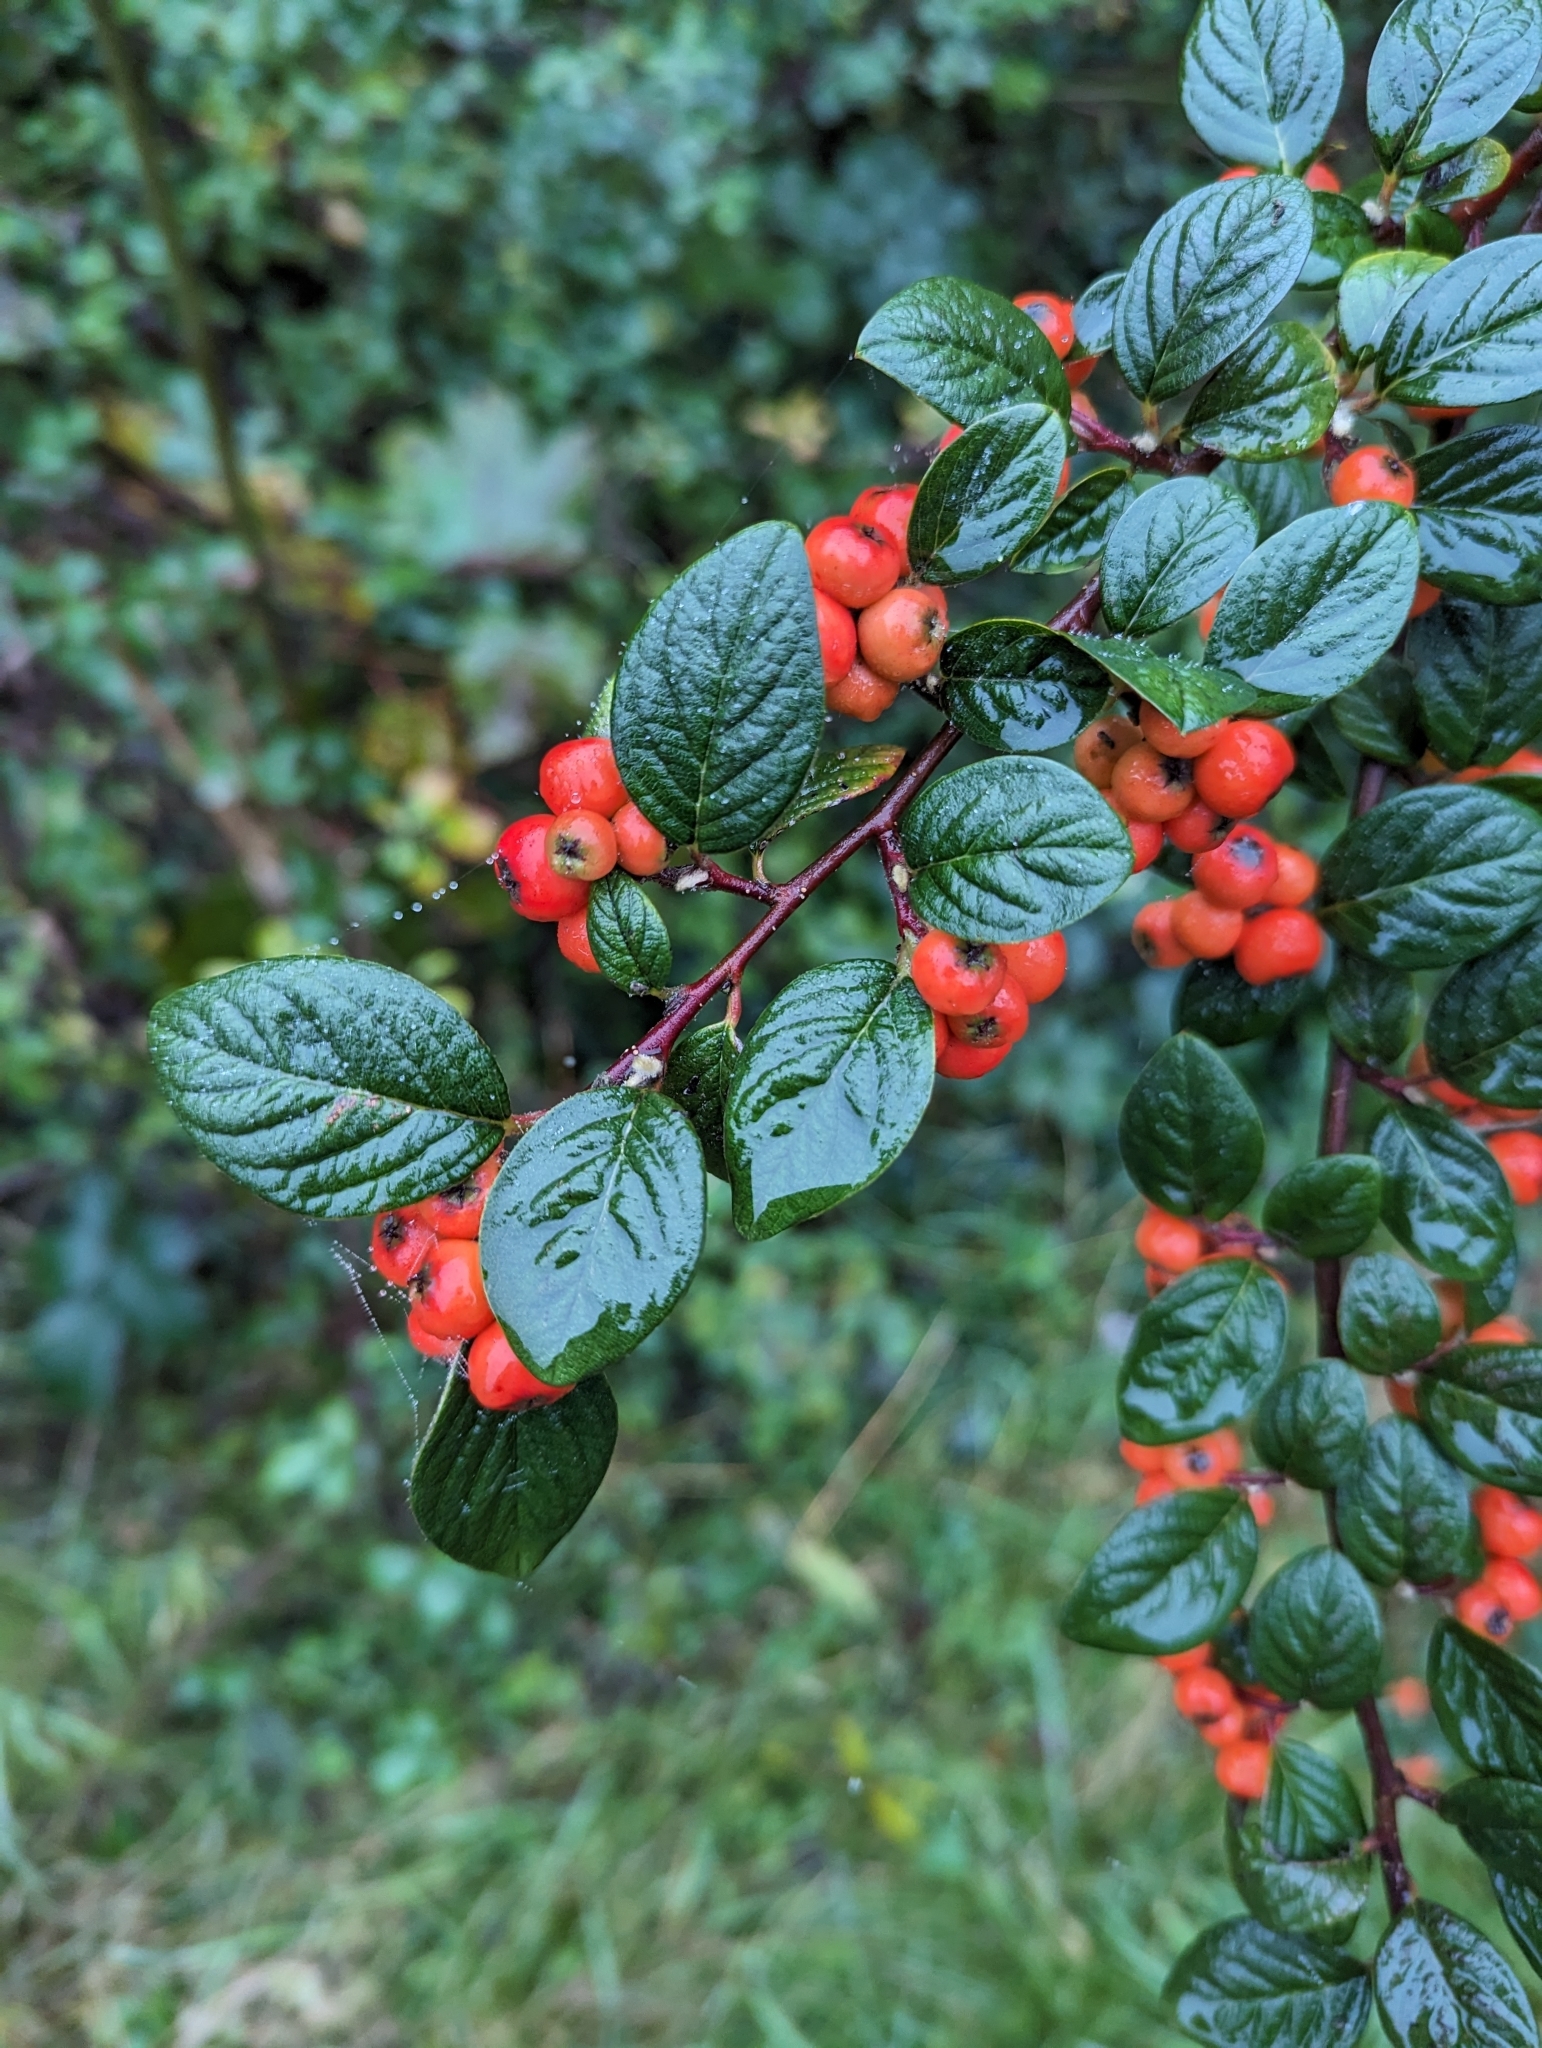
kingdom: Plantae
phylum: Tracheophyta
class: Magnoliopsida
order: Rosales
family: Rosaceae
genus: Cotoneaster
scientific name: Cotoneaster franchetii
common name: Franchet's cotoneaster
